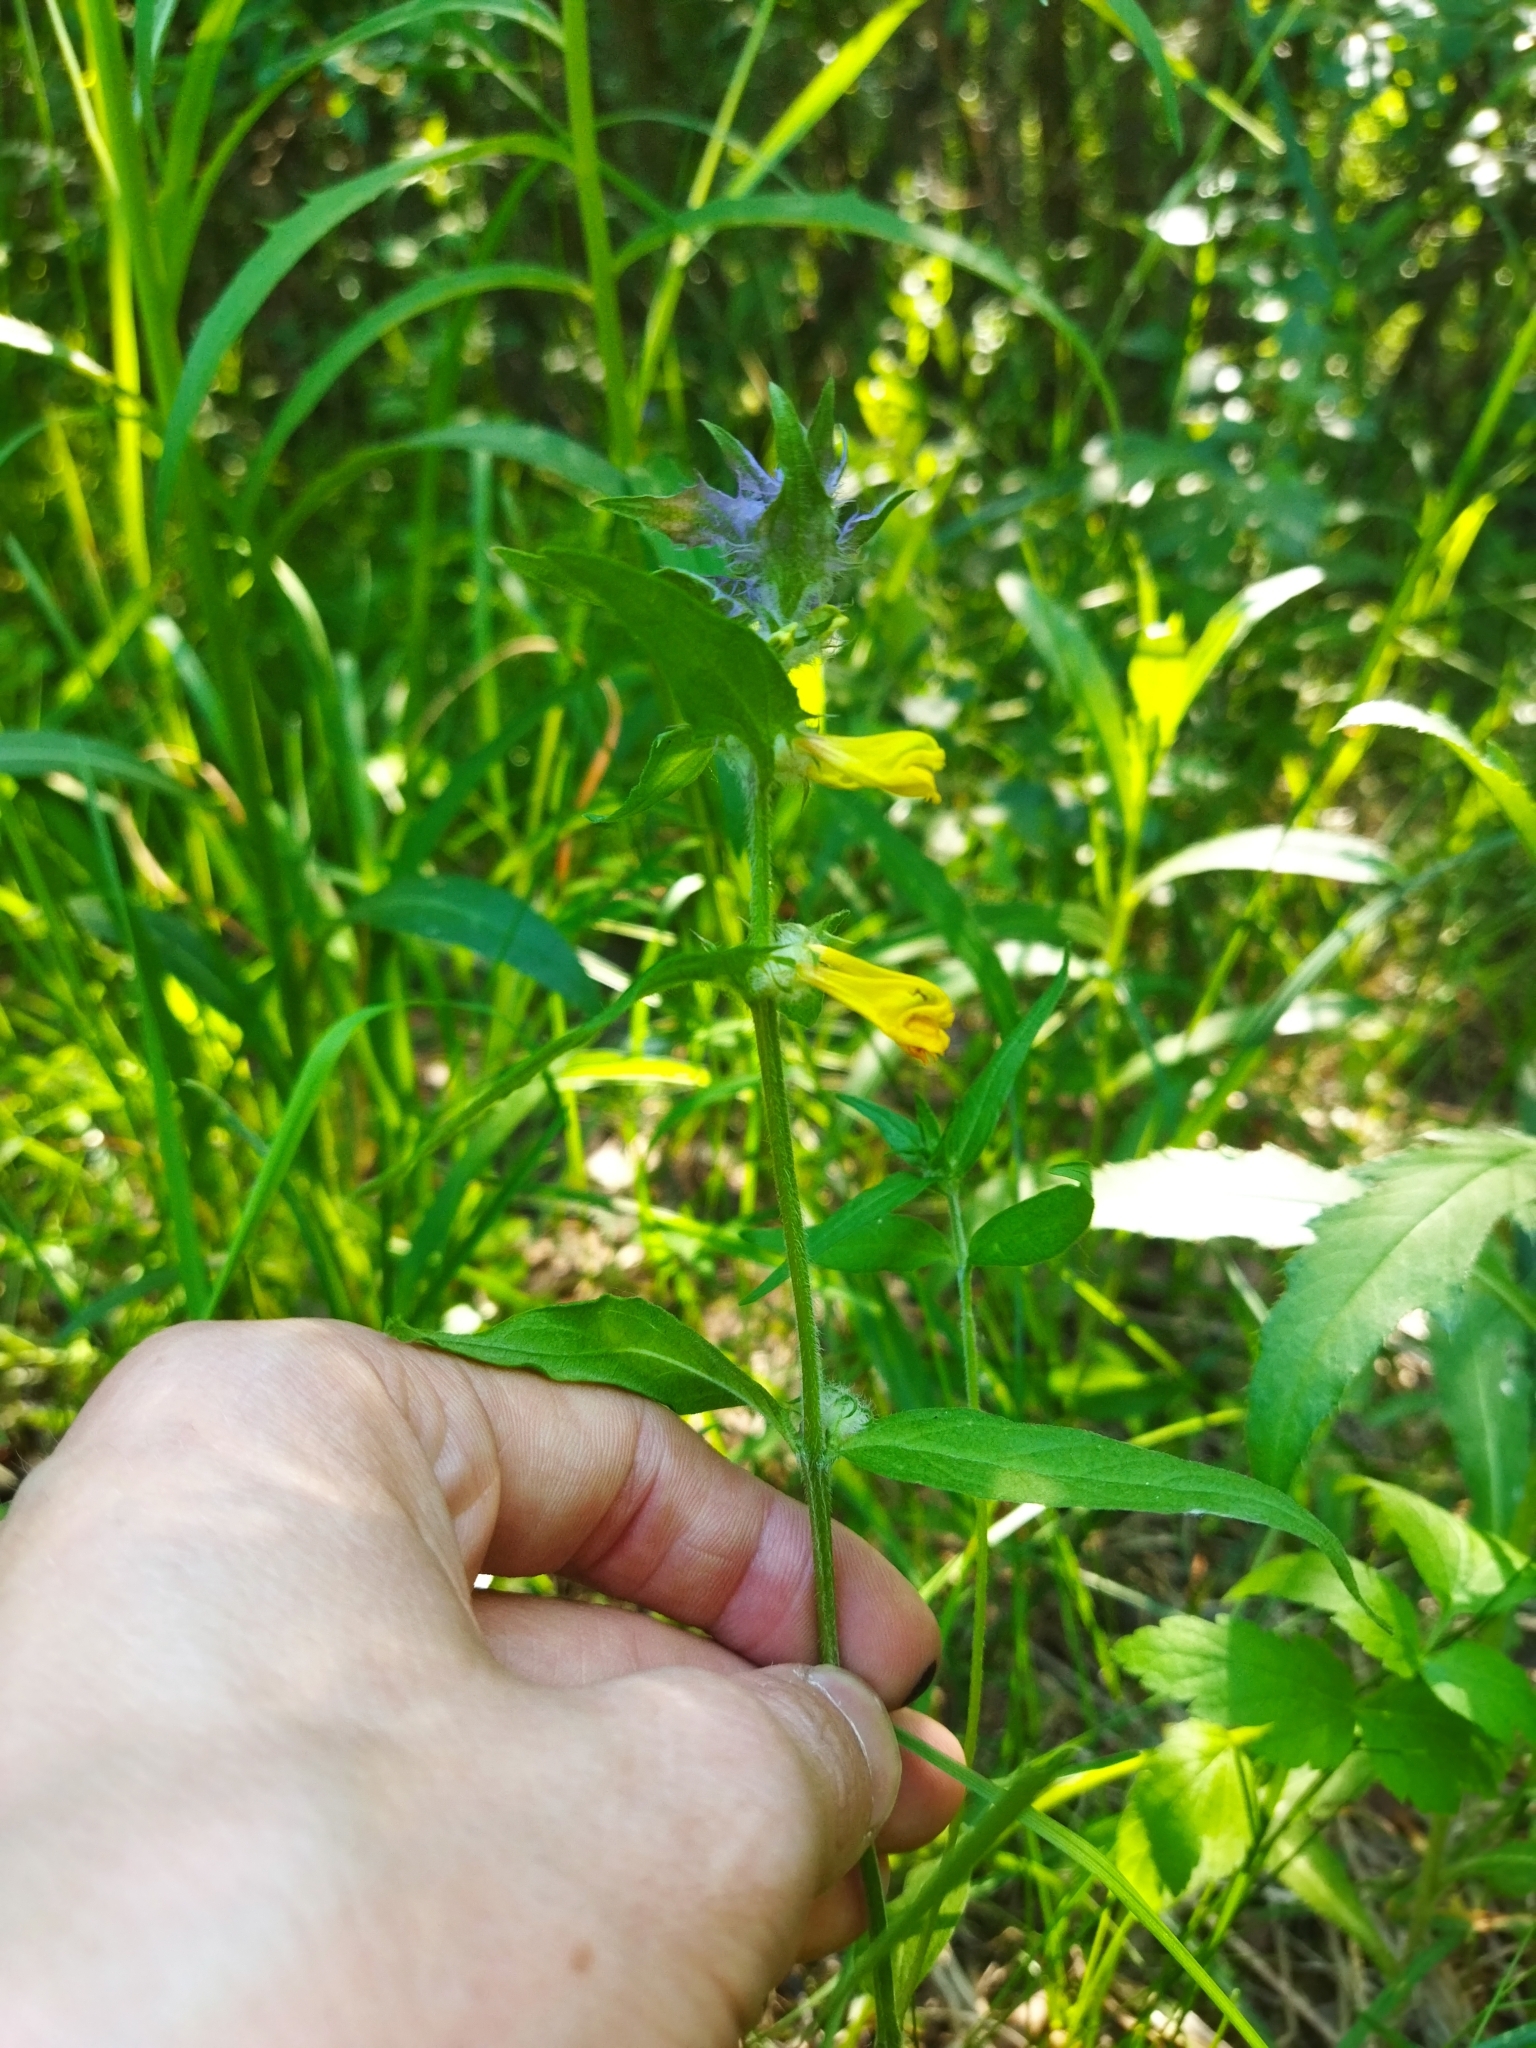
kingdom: Plantae
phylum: Tracheophyta
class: Magnoliopsida
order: Lamiales
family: Orobanchaceae
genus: Melampyrum
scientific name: Melampyrum nemorosum
